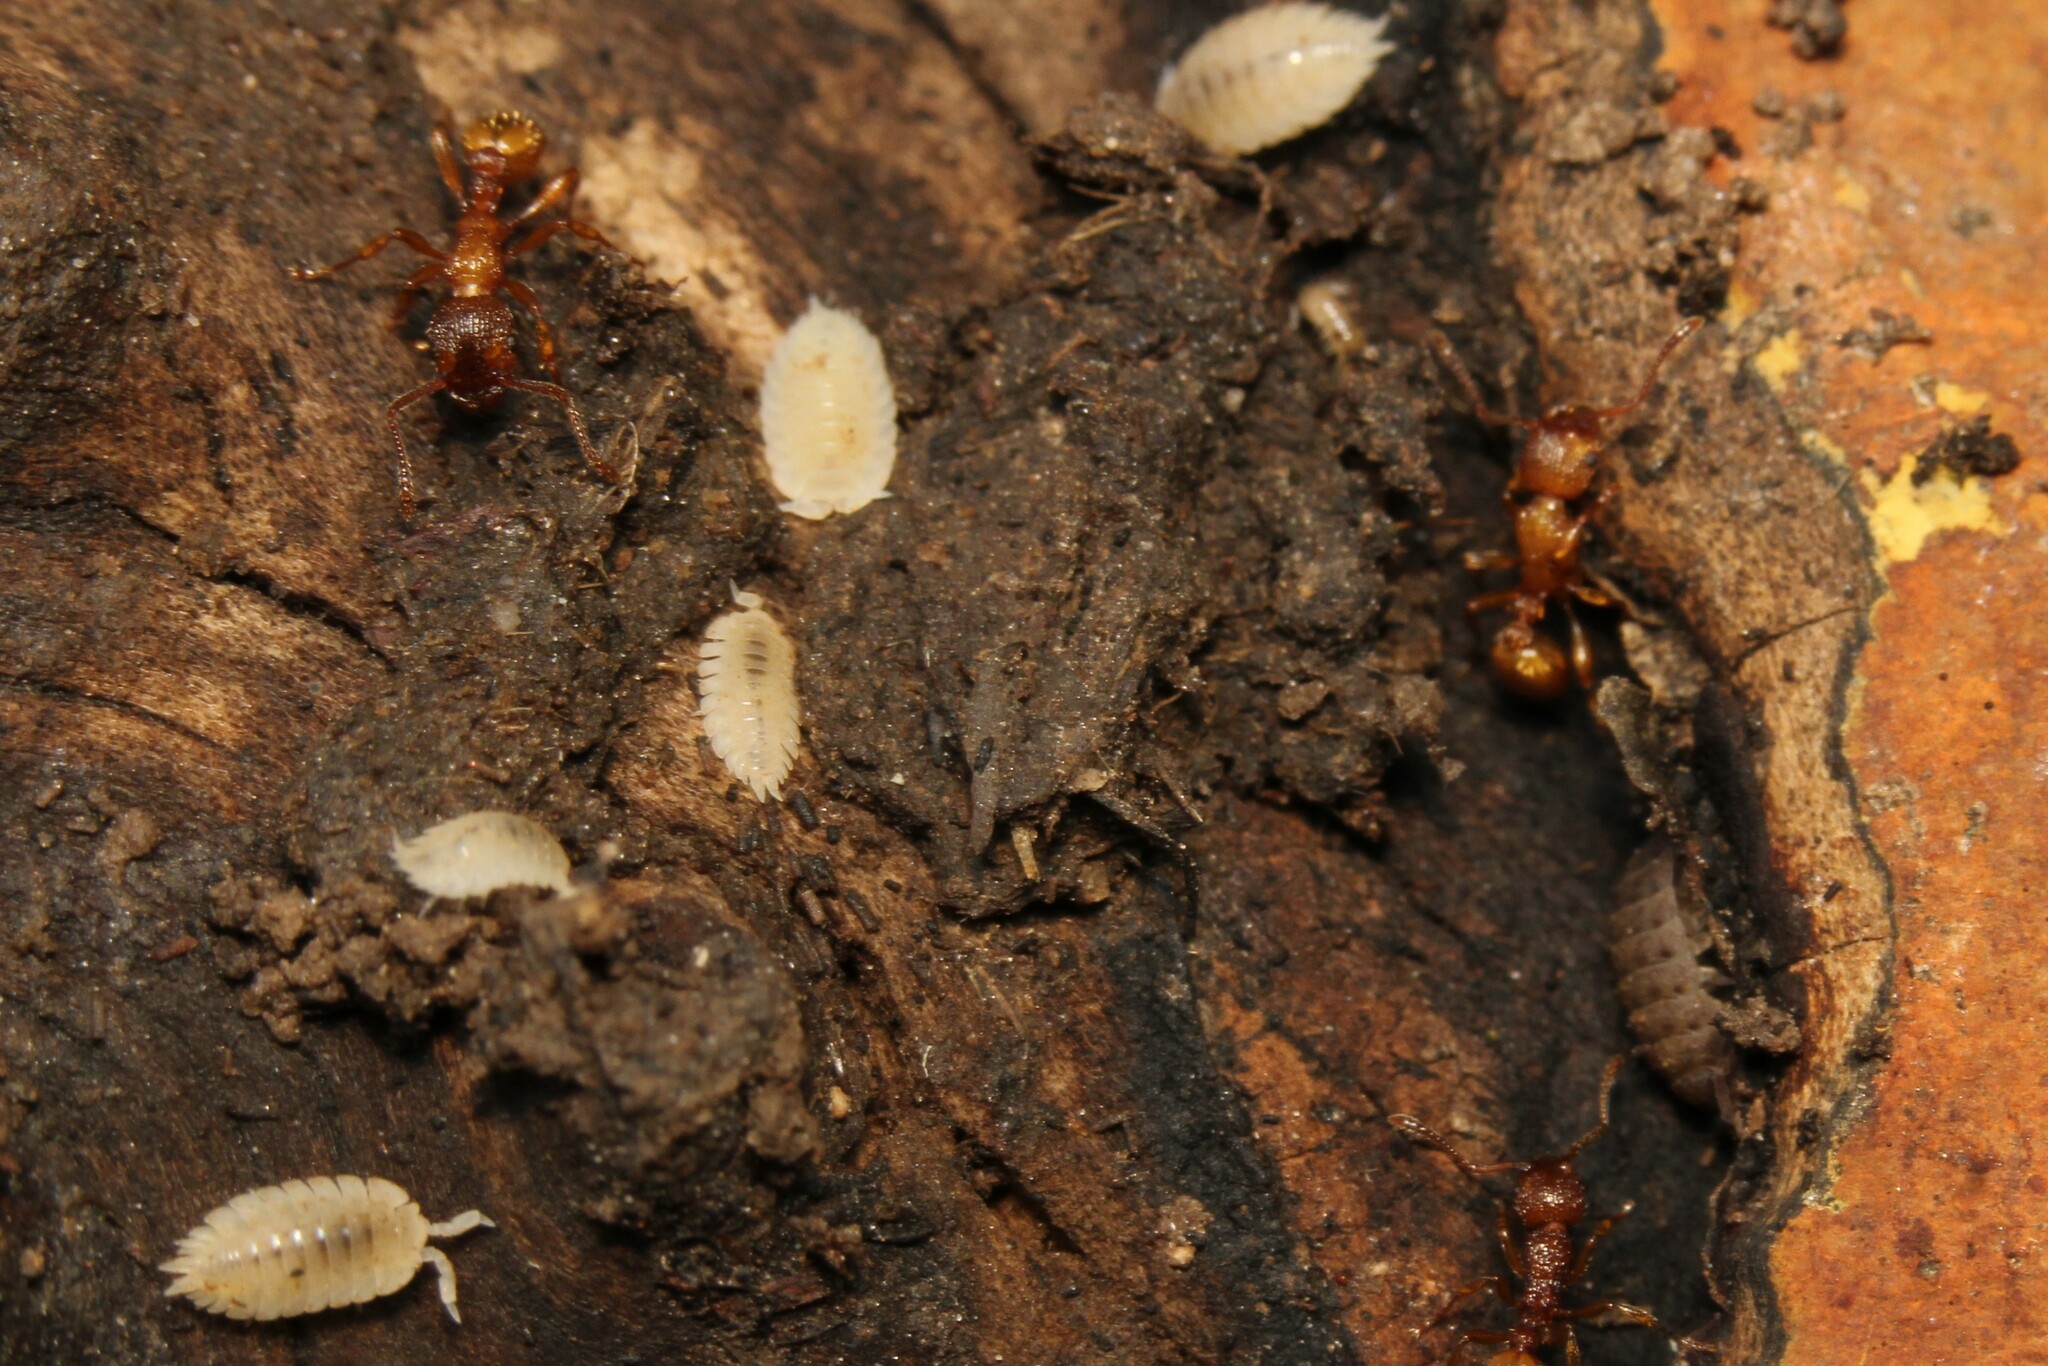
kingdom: Animalia
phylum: Arthropoda
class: Malacostraca
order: Isopoda
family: Platyarthridae
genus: Platyarthrus
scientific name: Platyarthrus hoffmannseggii
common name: Ant woodlouse
